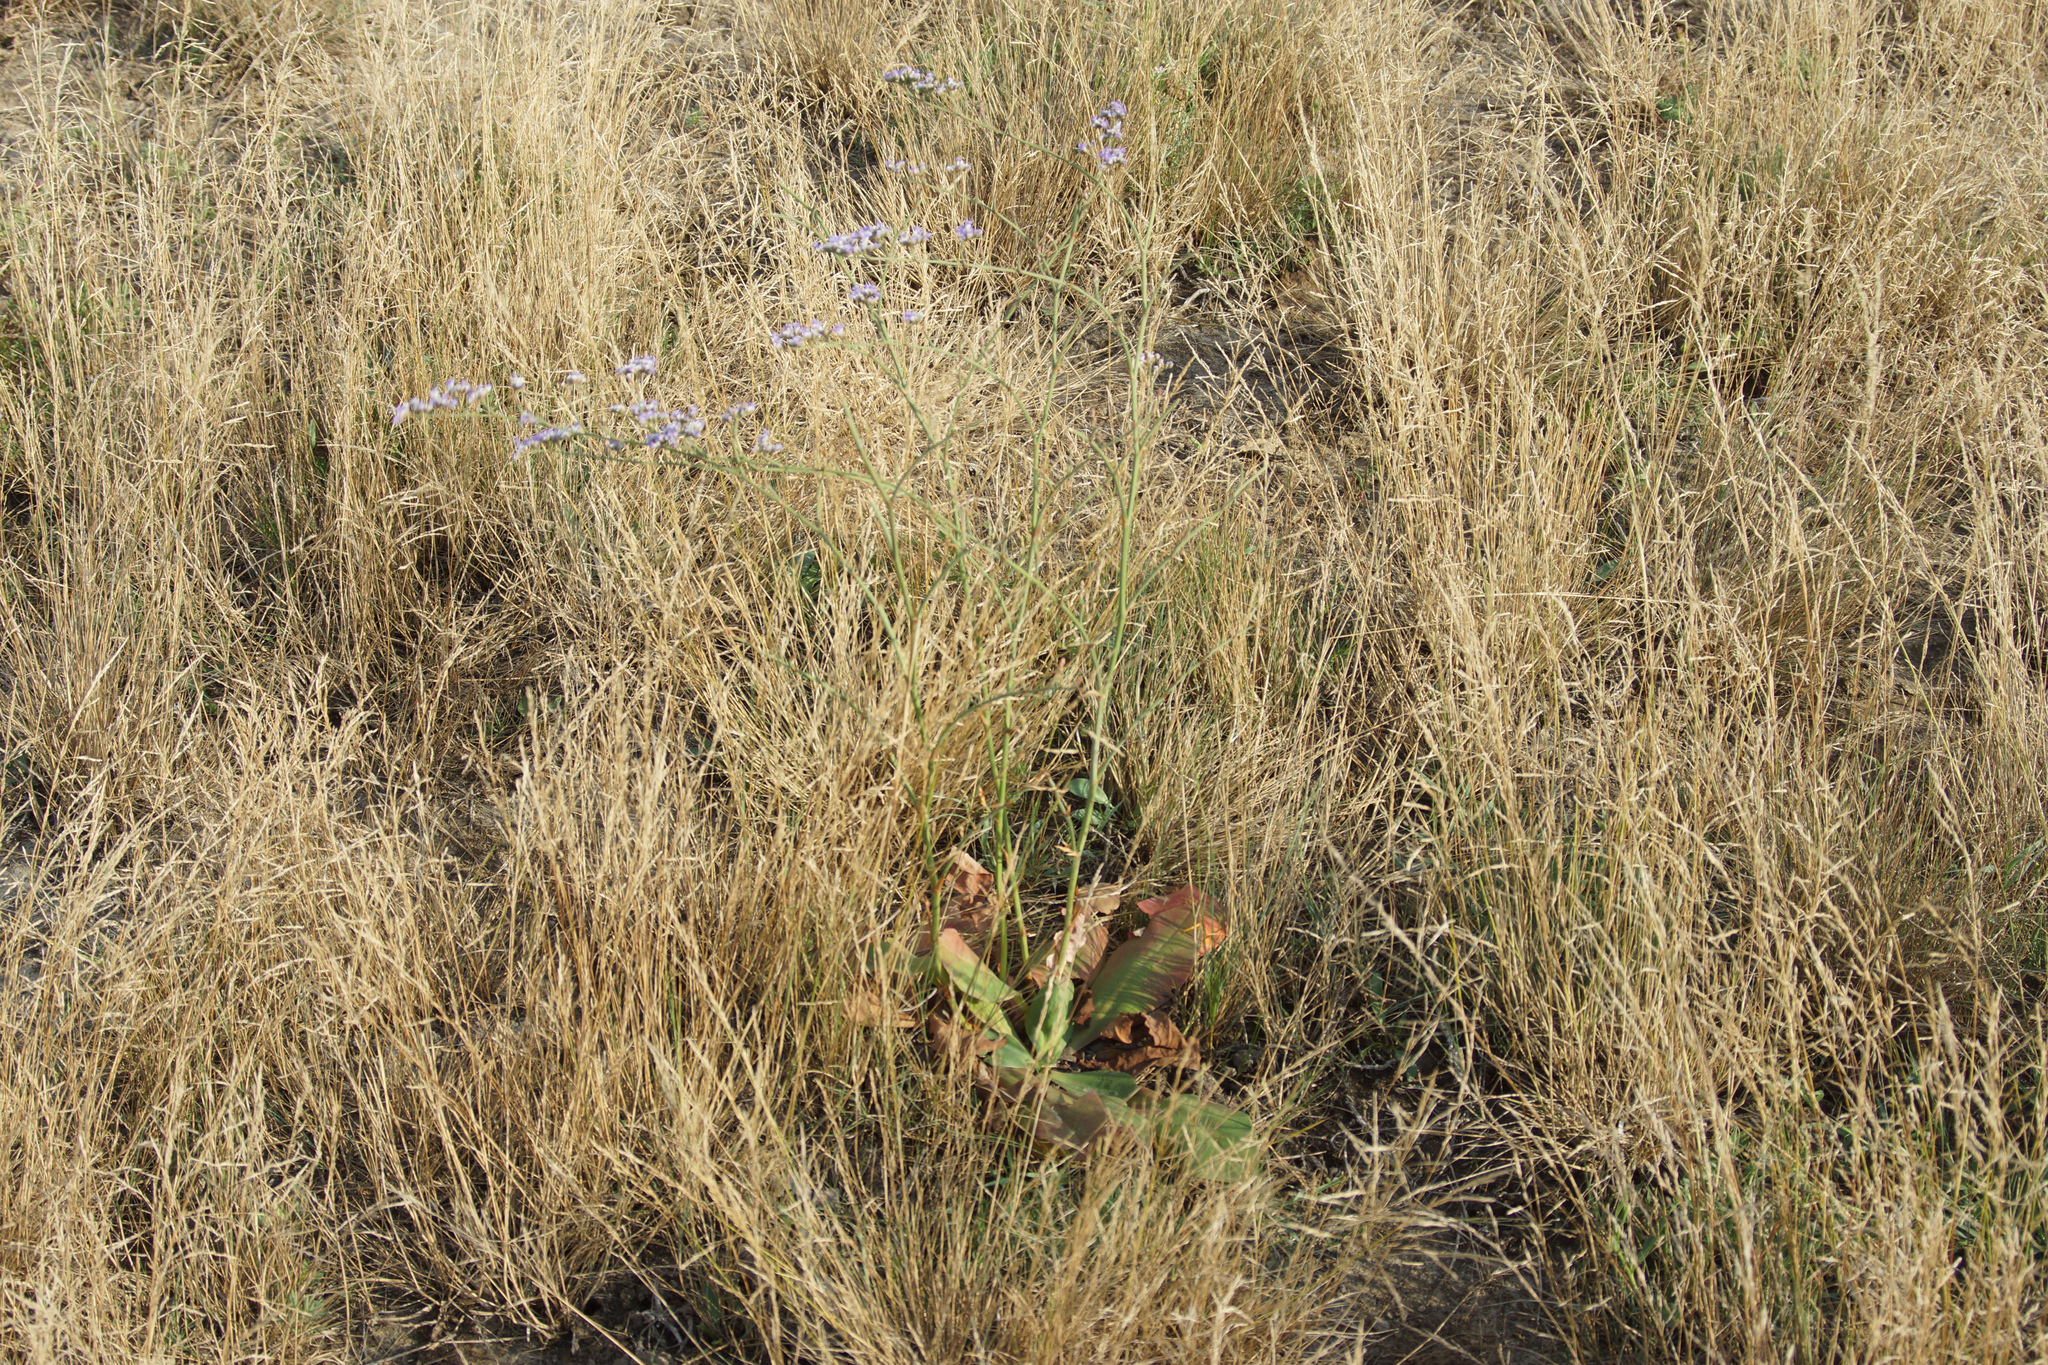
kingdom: Plantae
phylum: Tracheophyta
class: Magnoliopsida
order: Caryophyllales
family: Plumbaginaceae
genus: Limonium
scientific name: Limonium alutaceum
